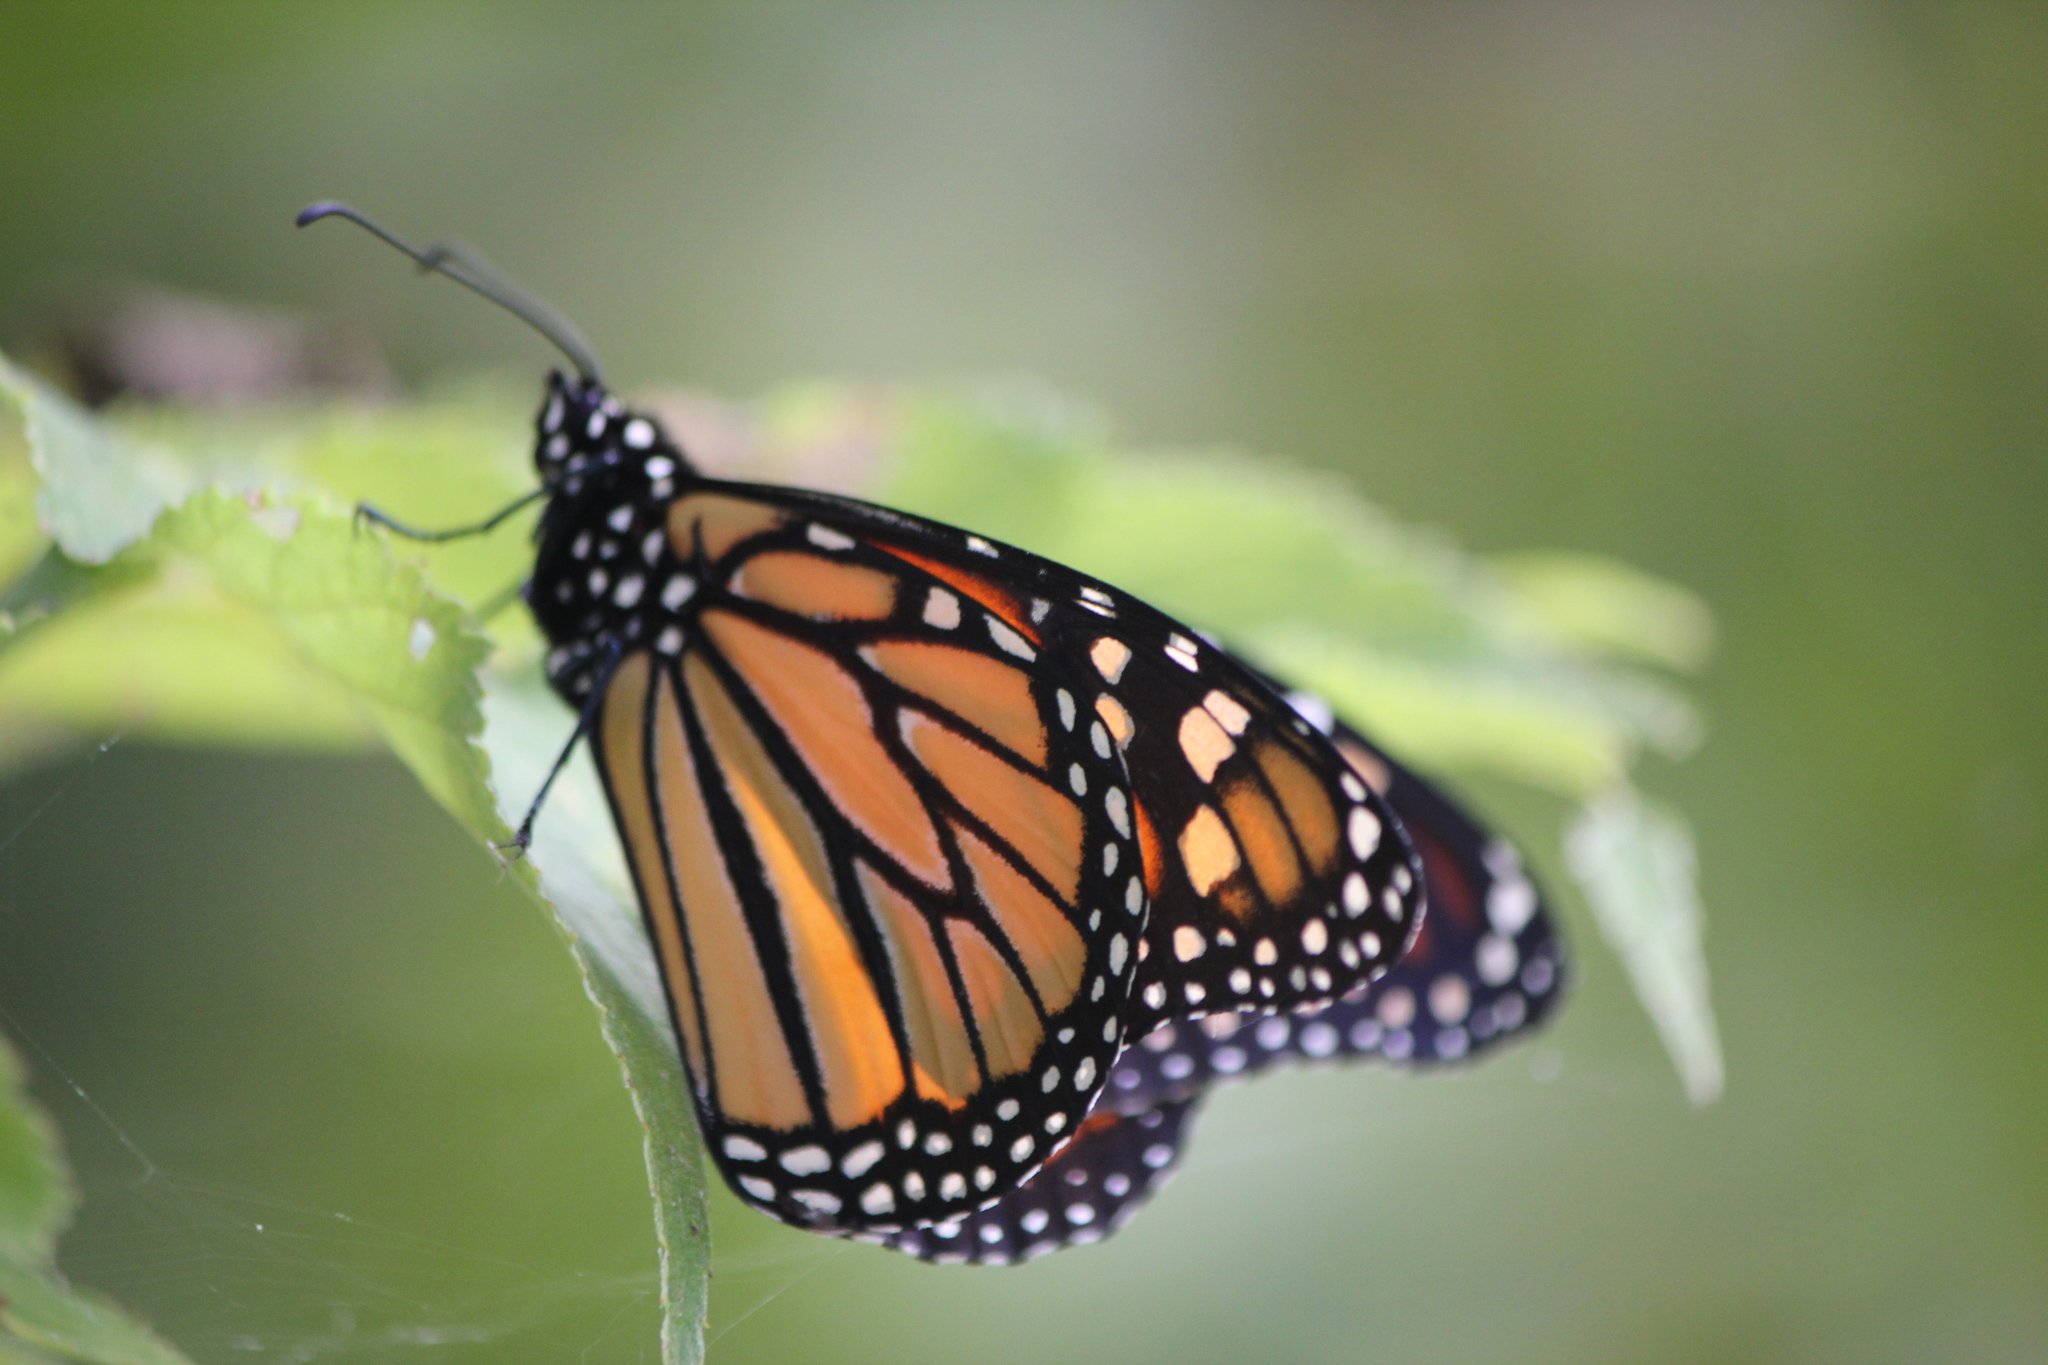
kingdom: Animalia
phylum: Arthropoda
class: Insecta
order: Lepidoptera
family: Nymphalidae
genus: Danaus
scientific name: Danaus plexippus
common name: Monarch
